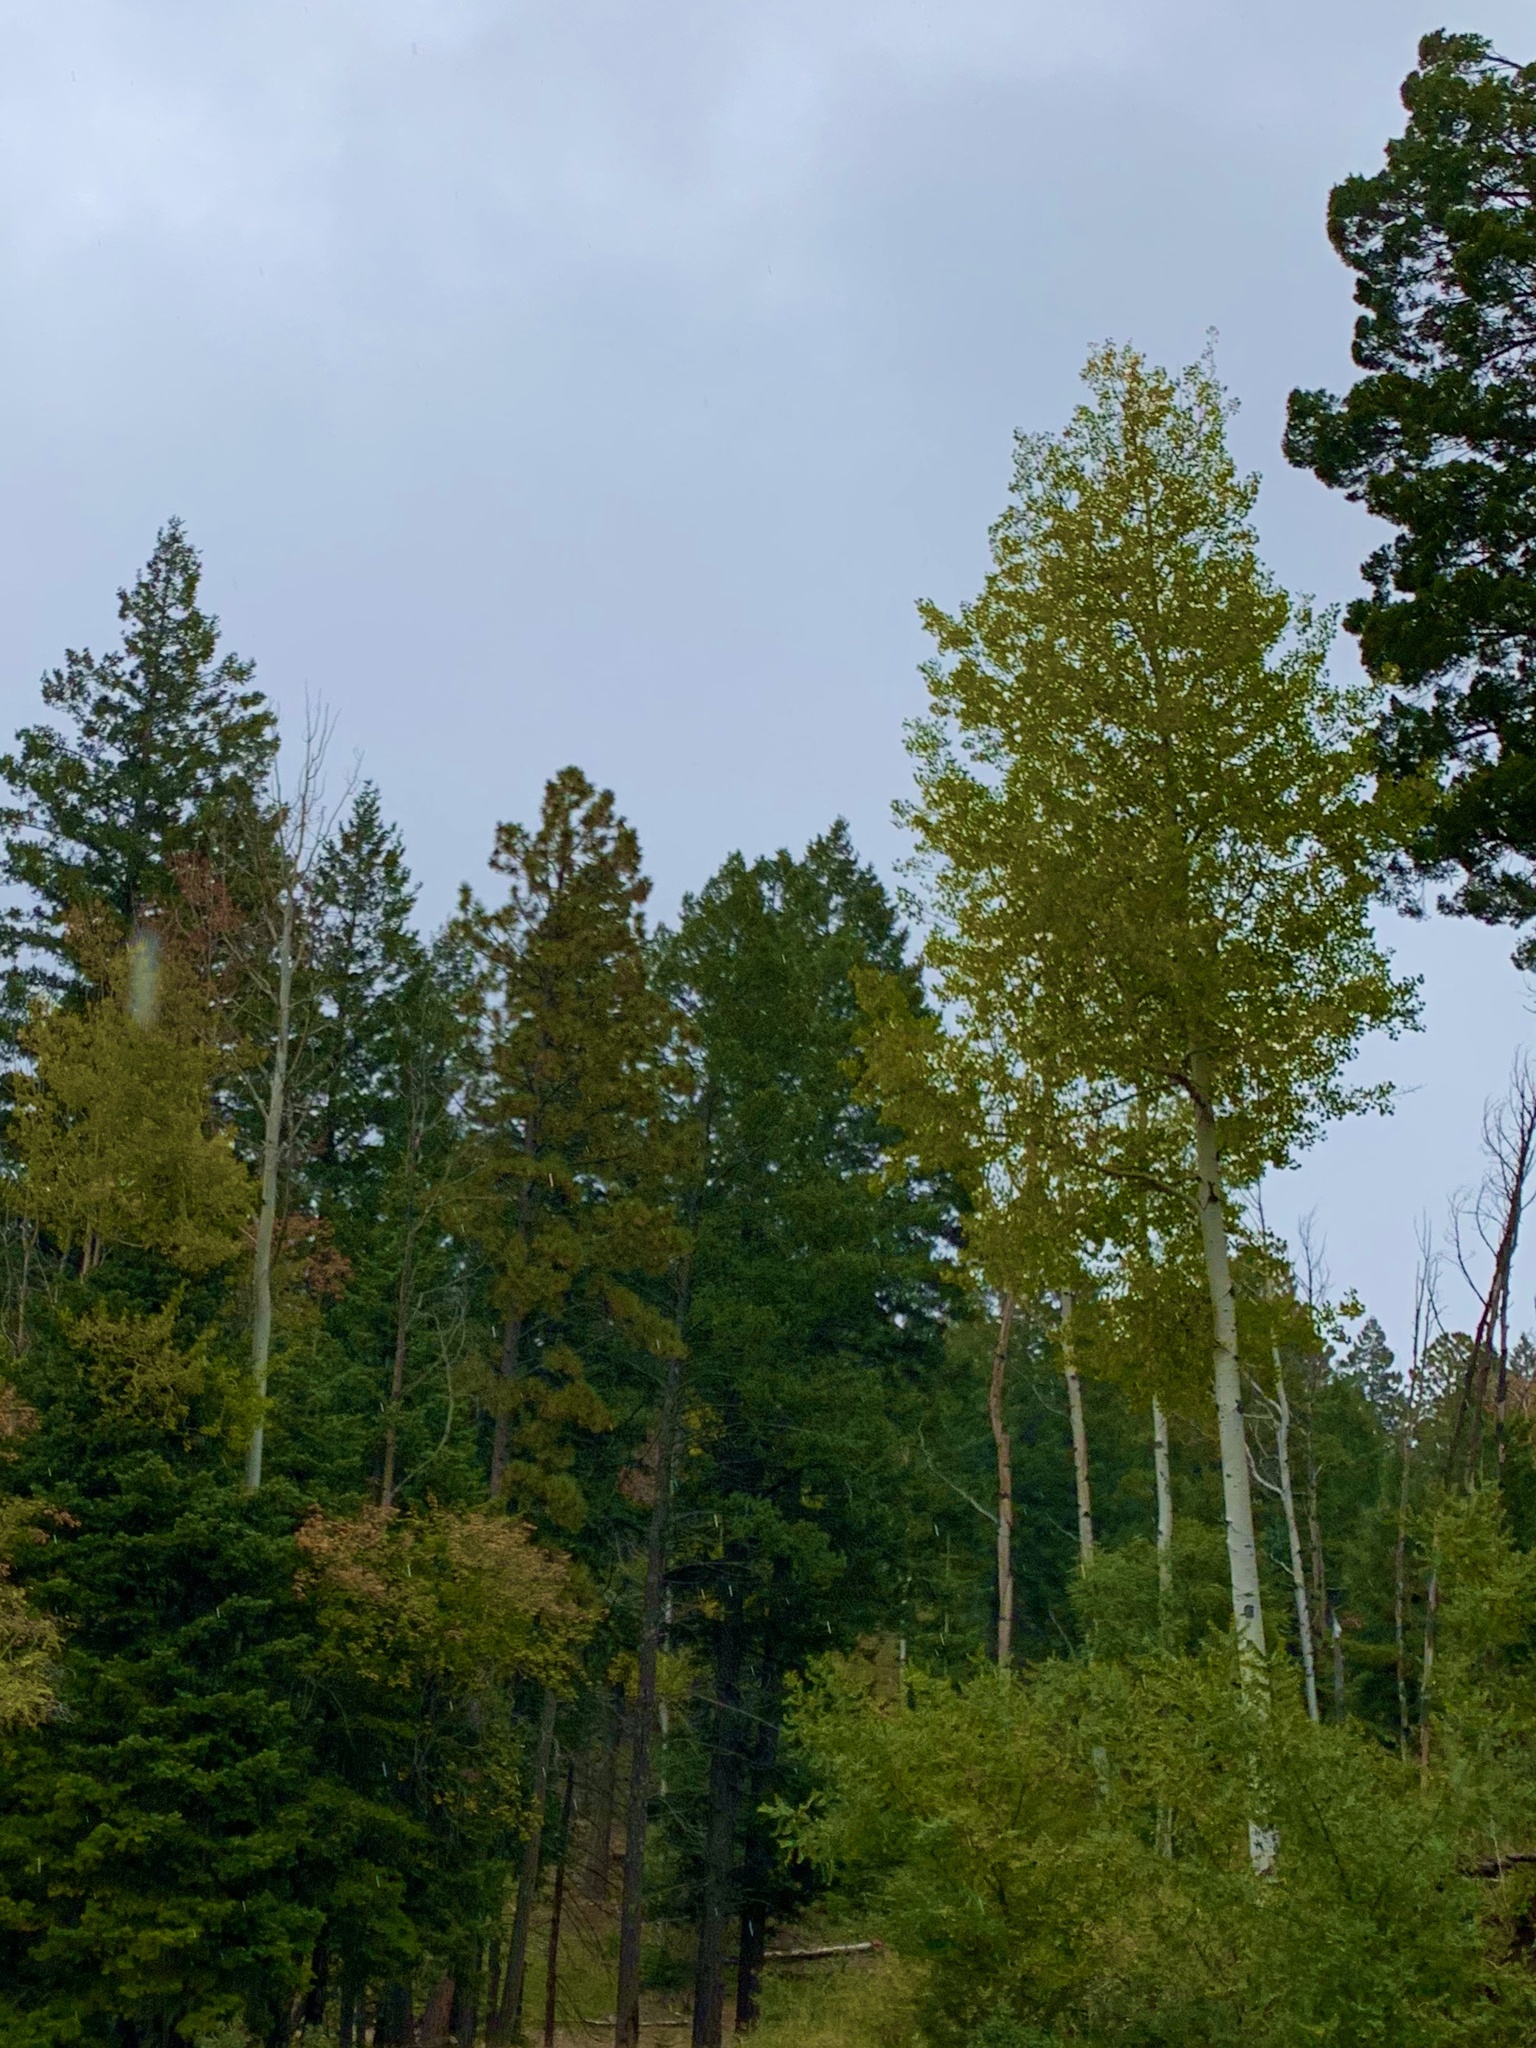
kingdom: Plantae
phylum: Tracheophyta
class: Magnoliopsida
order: Malpighiales
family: Salicaceae
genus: Populus
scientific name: Populus tremuloides
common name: Quaking aspen
